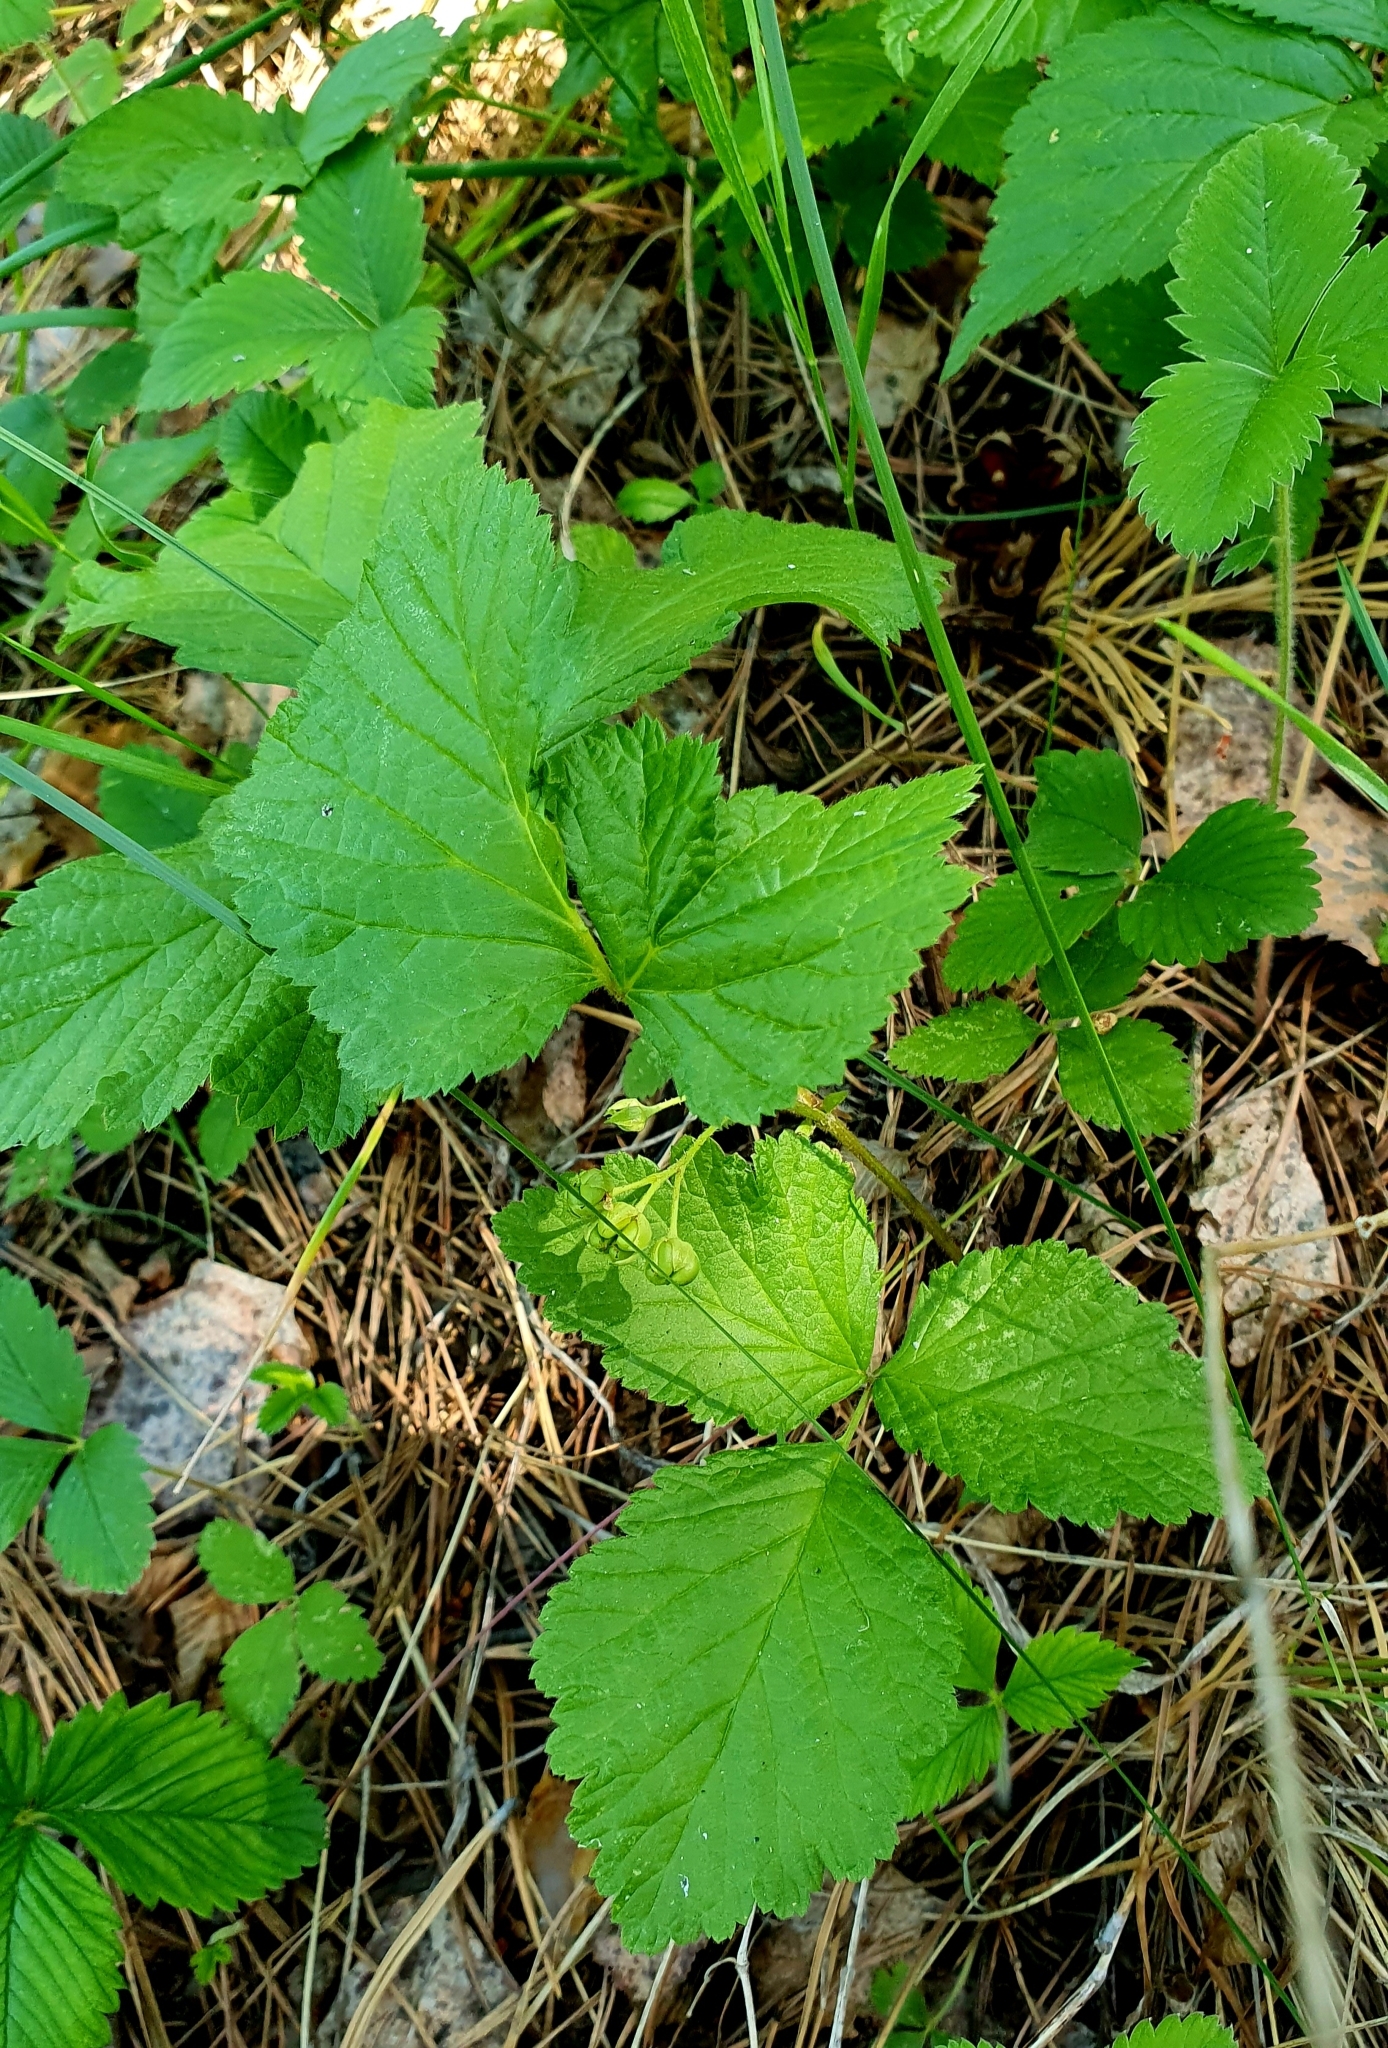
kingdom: Plantae
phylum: Tracheophyta
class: Magnoliopsida
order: Rosales
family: Rosaceae
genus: Rubus
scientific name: Rubus saxatilis
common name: Stone bramble
